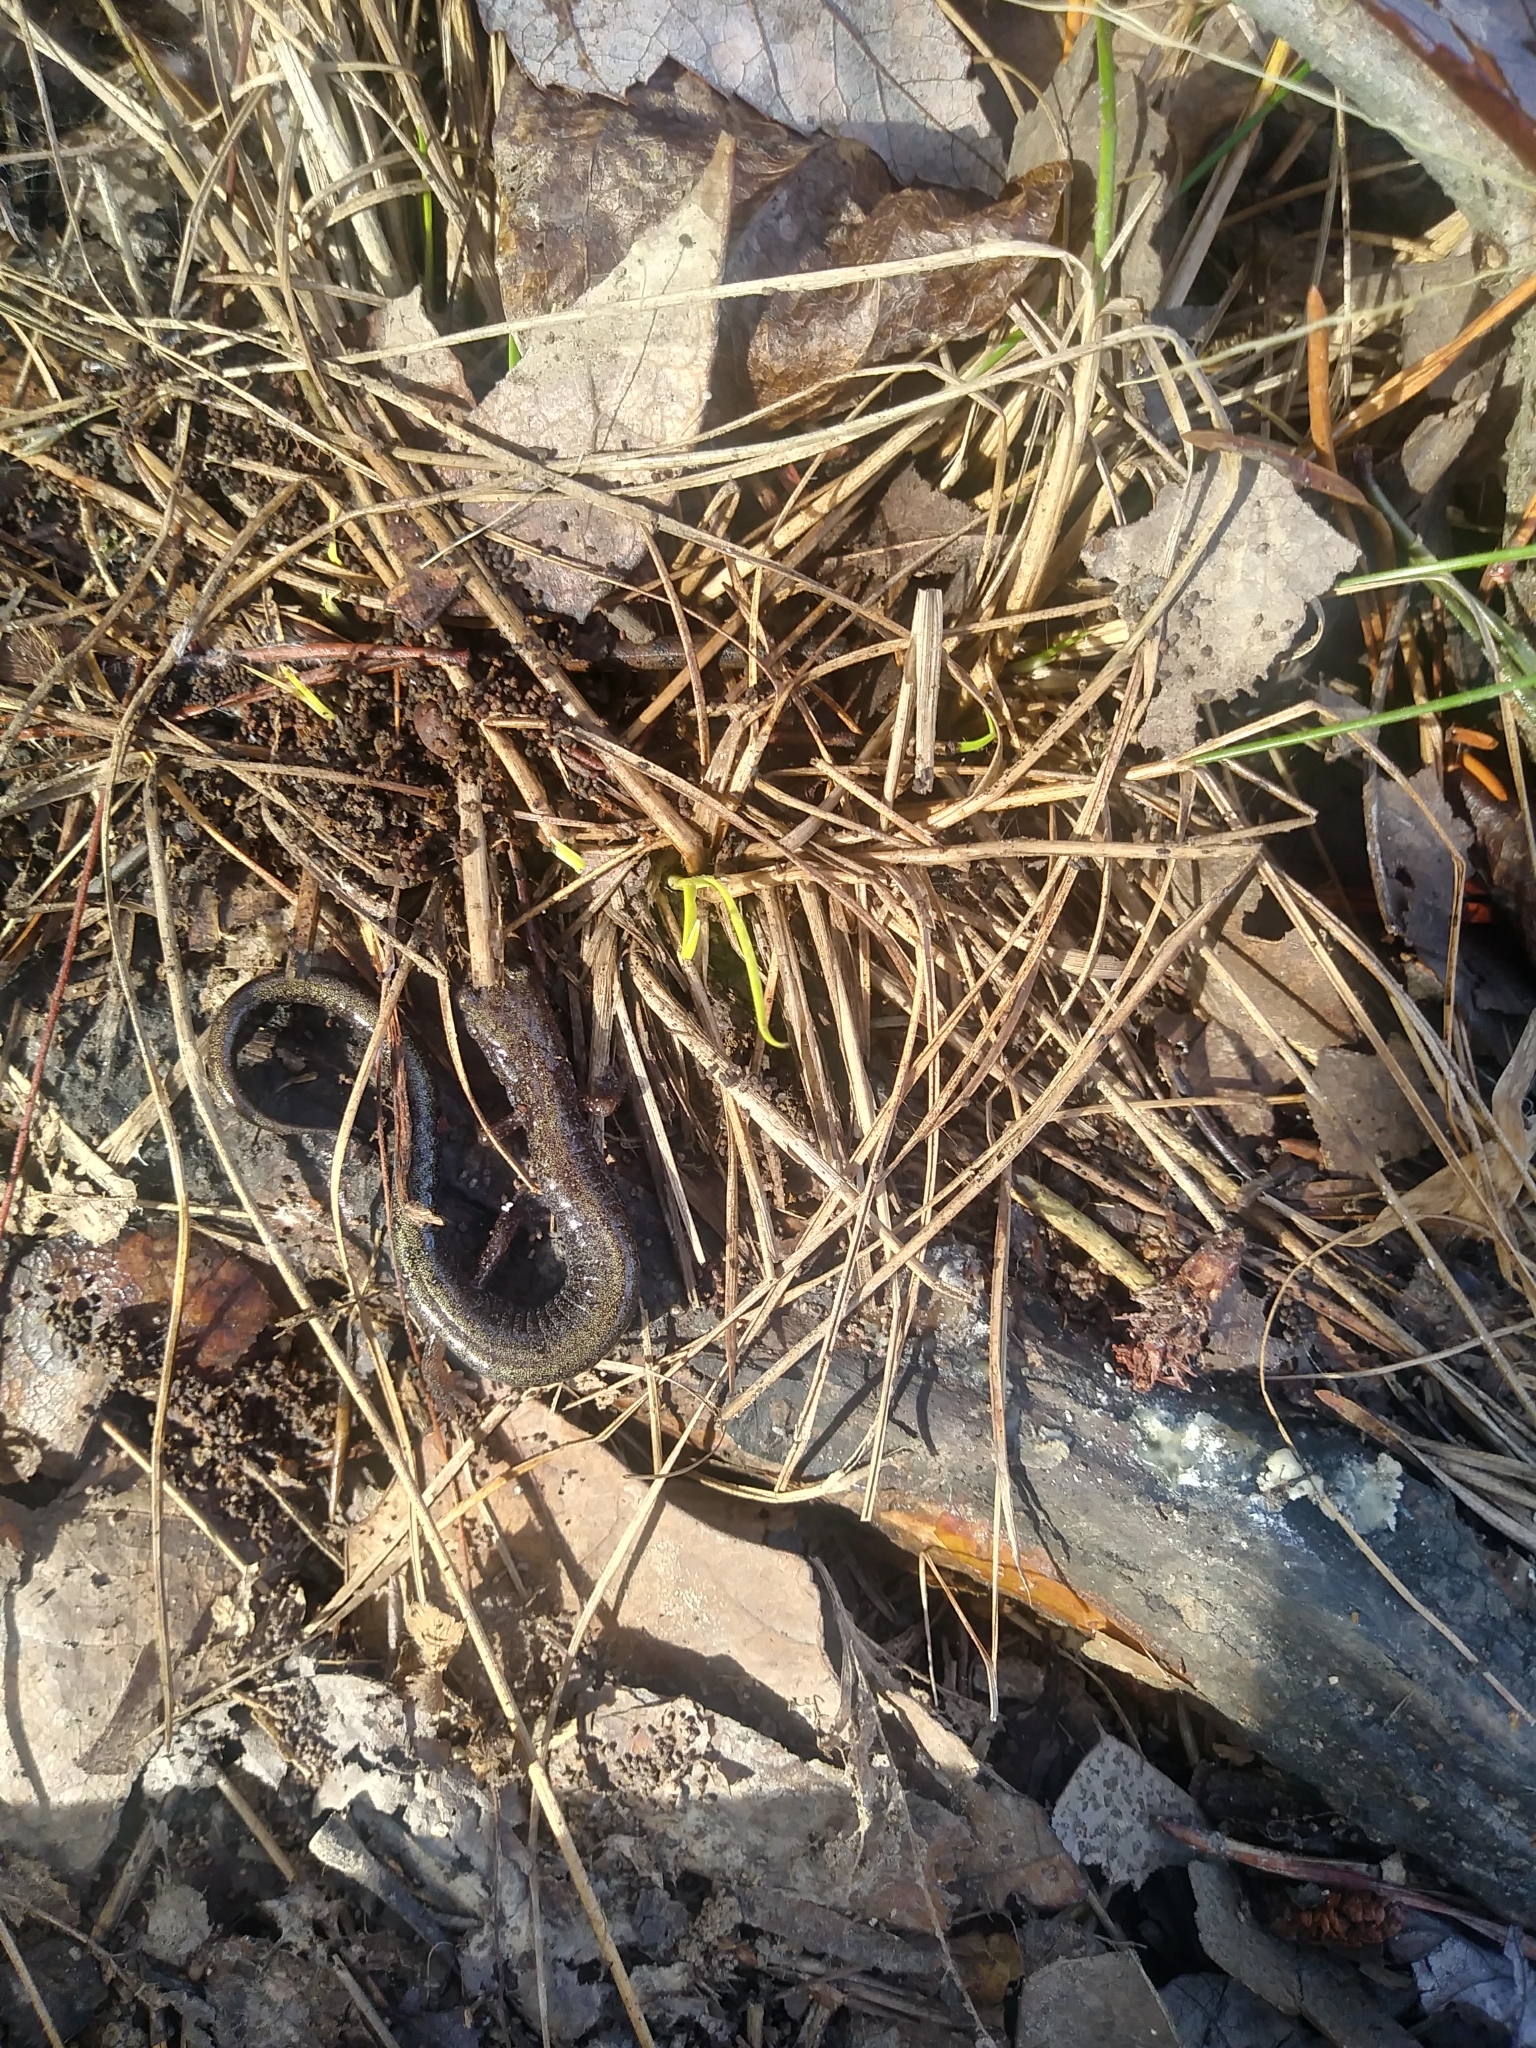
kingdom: Animalia
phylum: Chordata
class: Amphibia
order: Caudata
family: Plethodontidae
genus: Plethodon
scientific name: Plethodon cinereus
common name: Redback salamander
